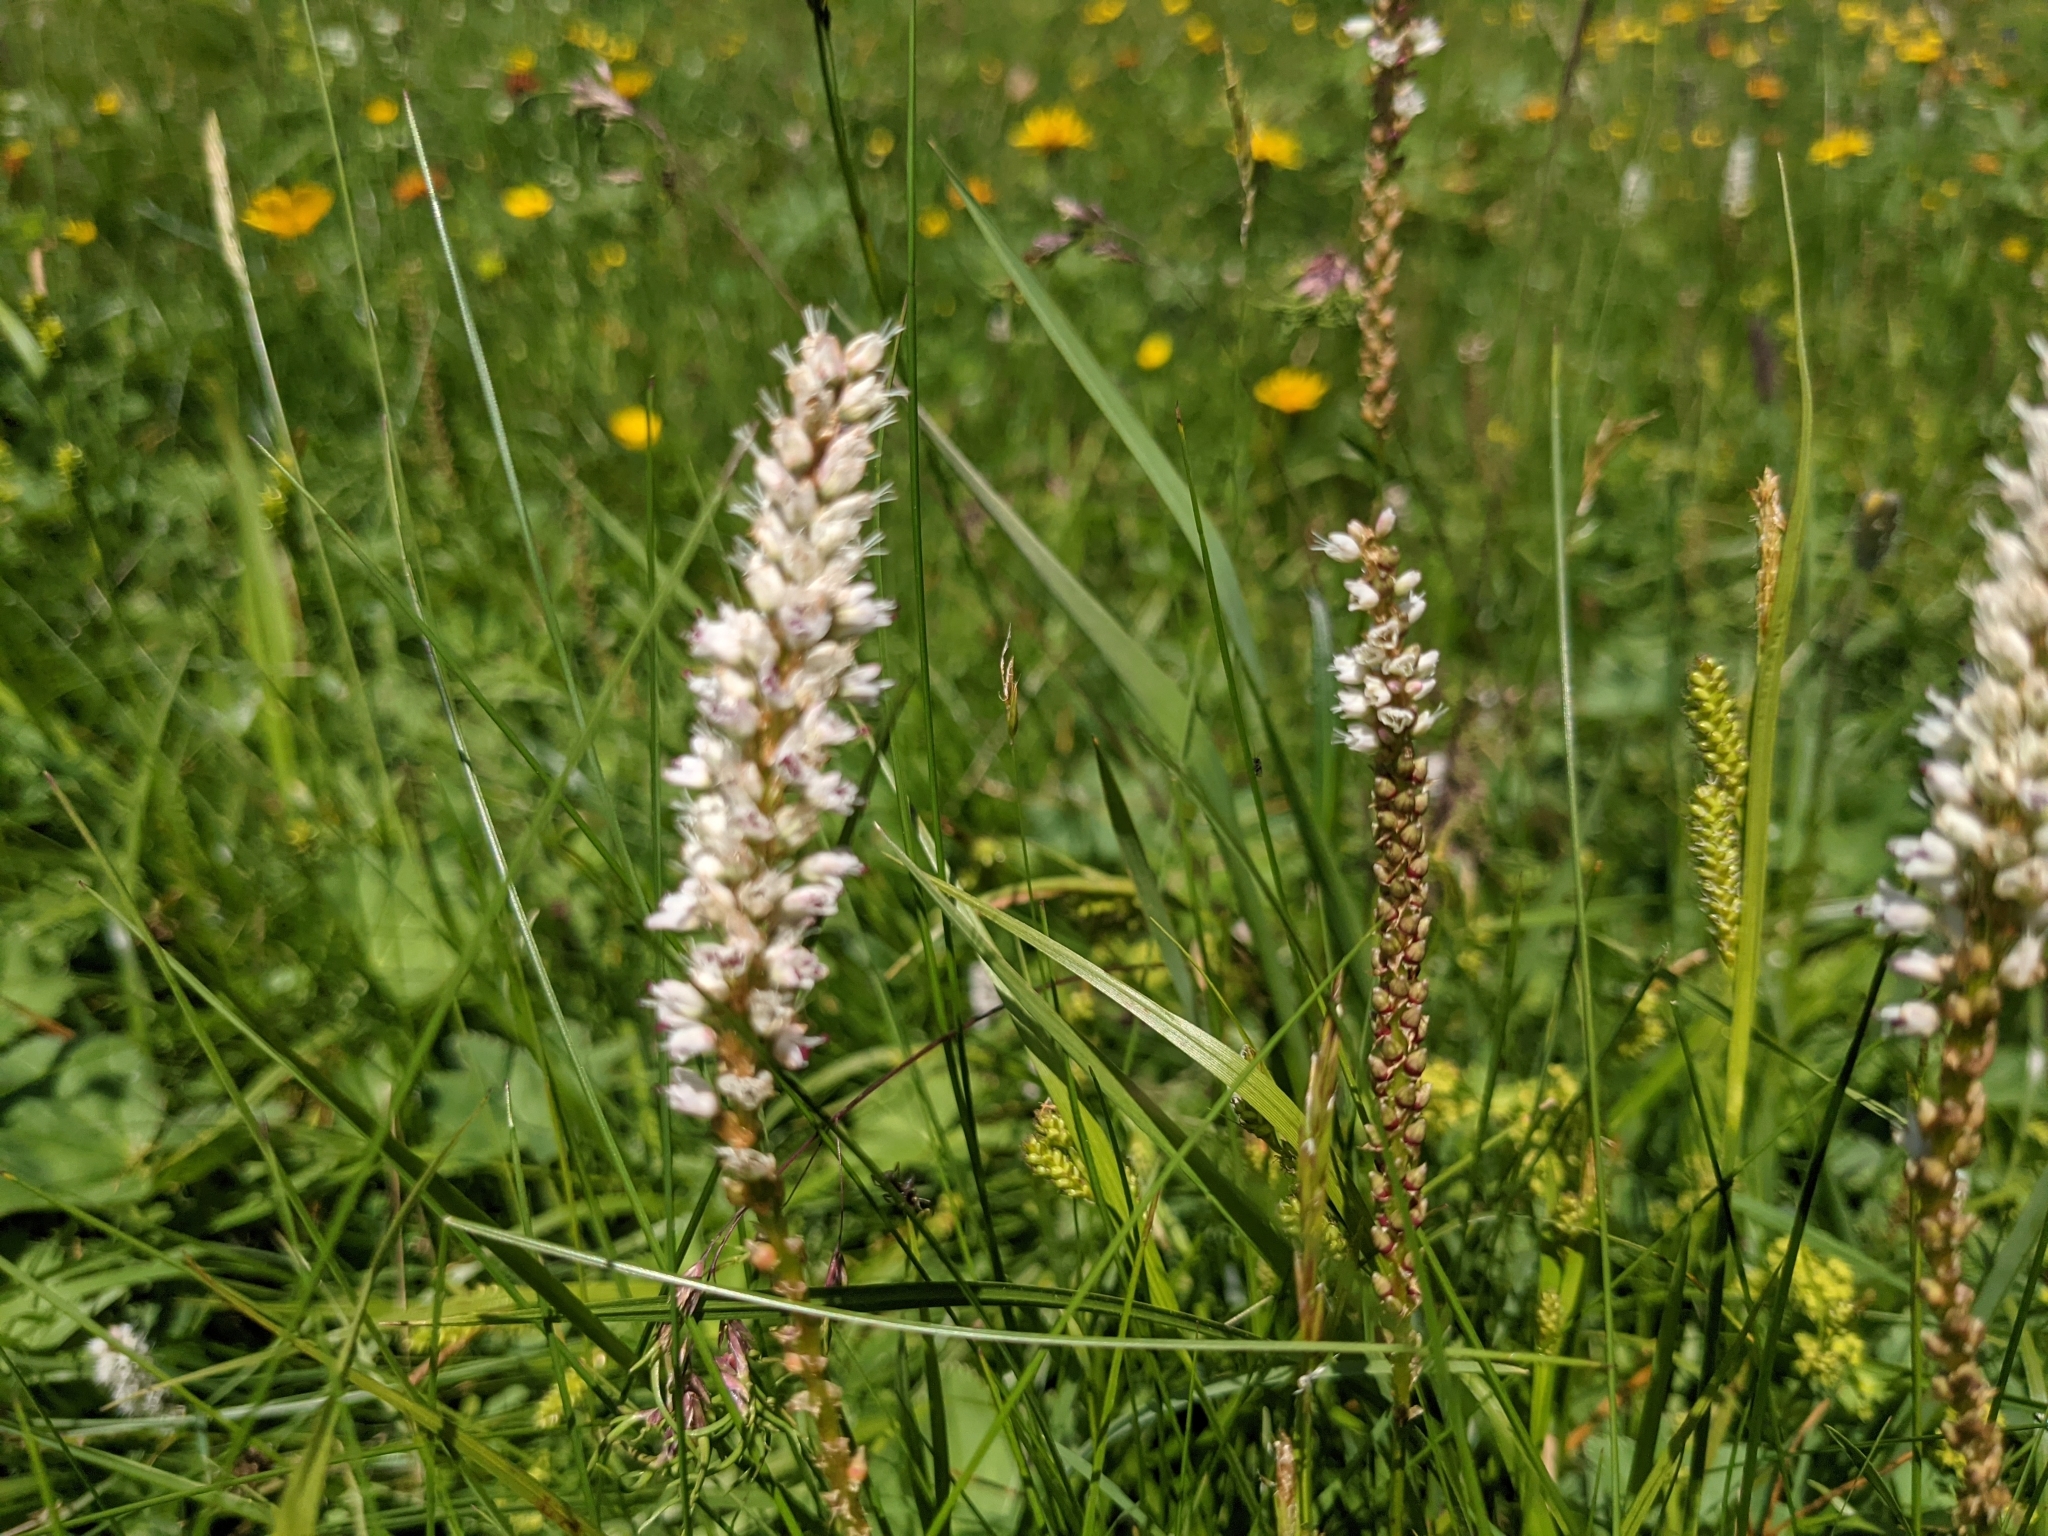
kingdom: Plantae
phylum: Tracheophyta
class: Magnoliopsida
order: Caryophyllales
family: Polygonaceae
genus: Bistorta
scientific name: Bistorta vivipara
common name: Alpine bistort
